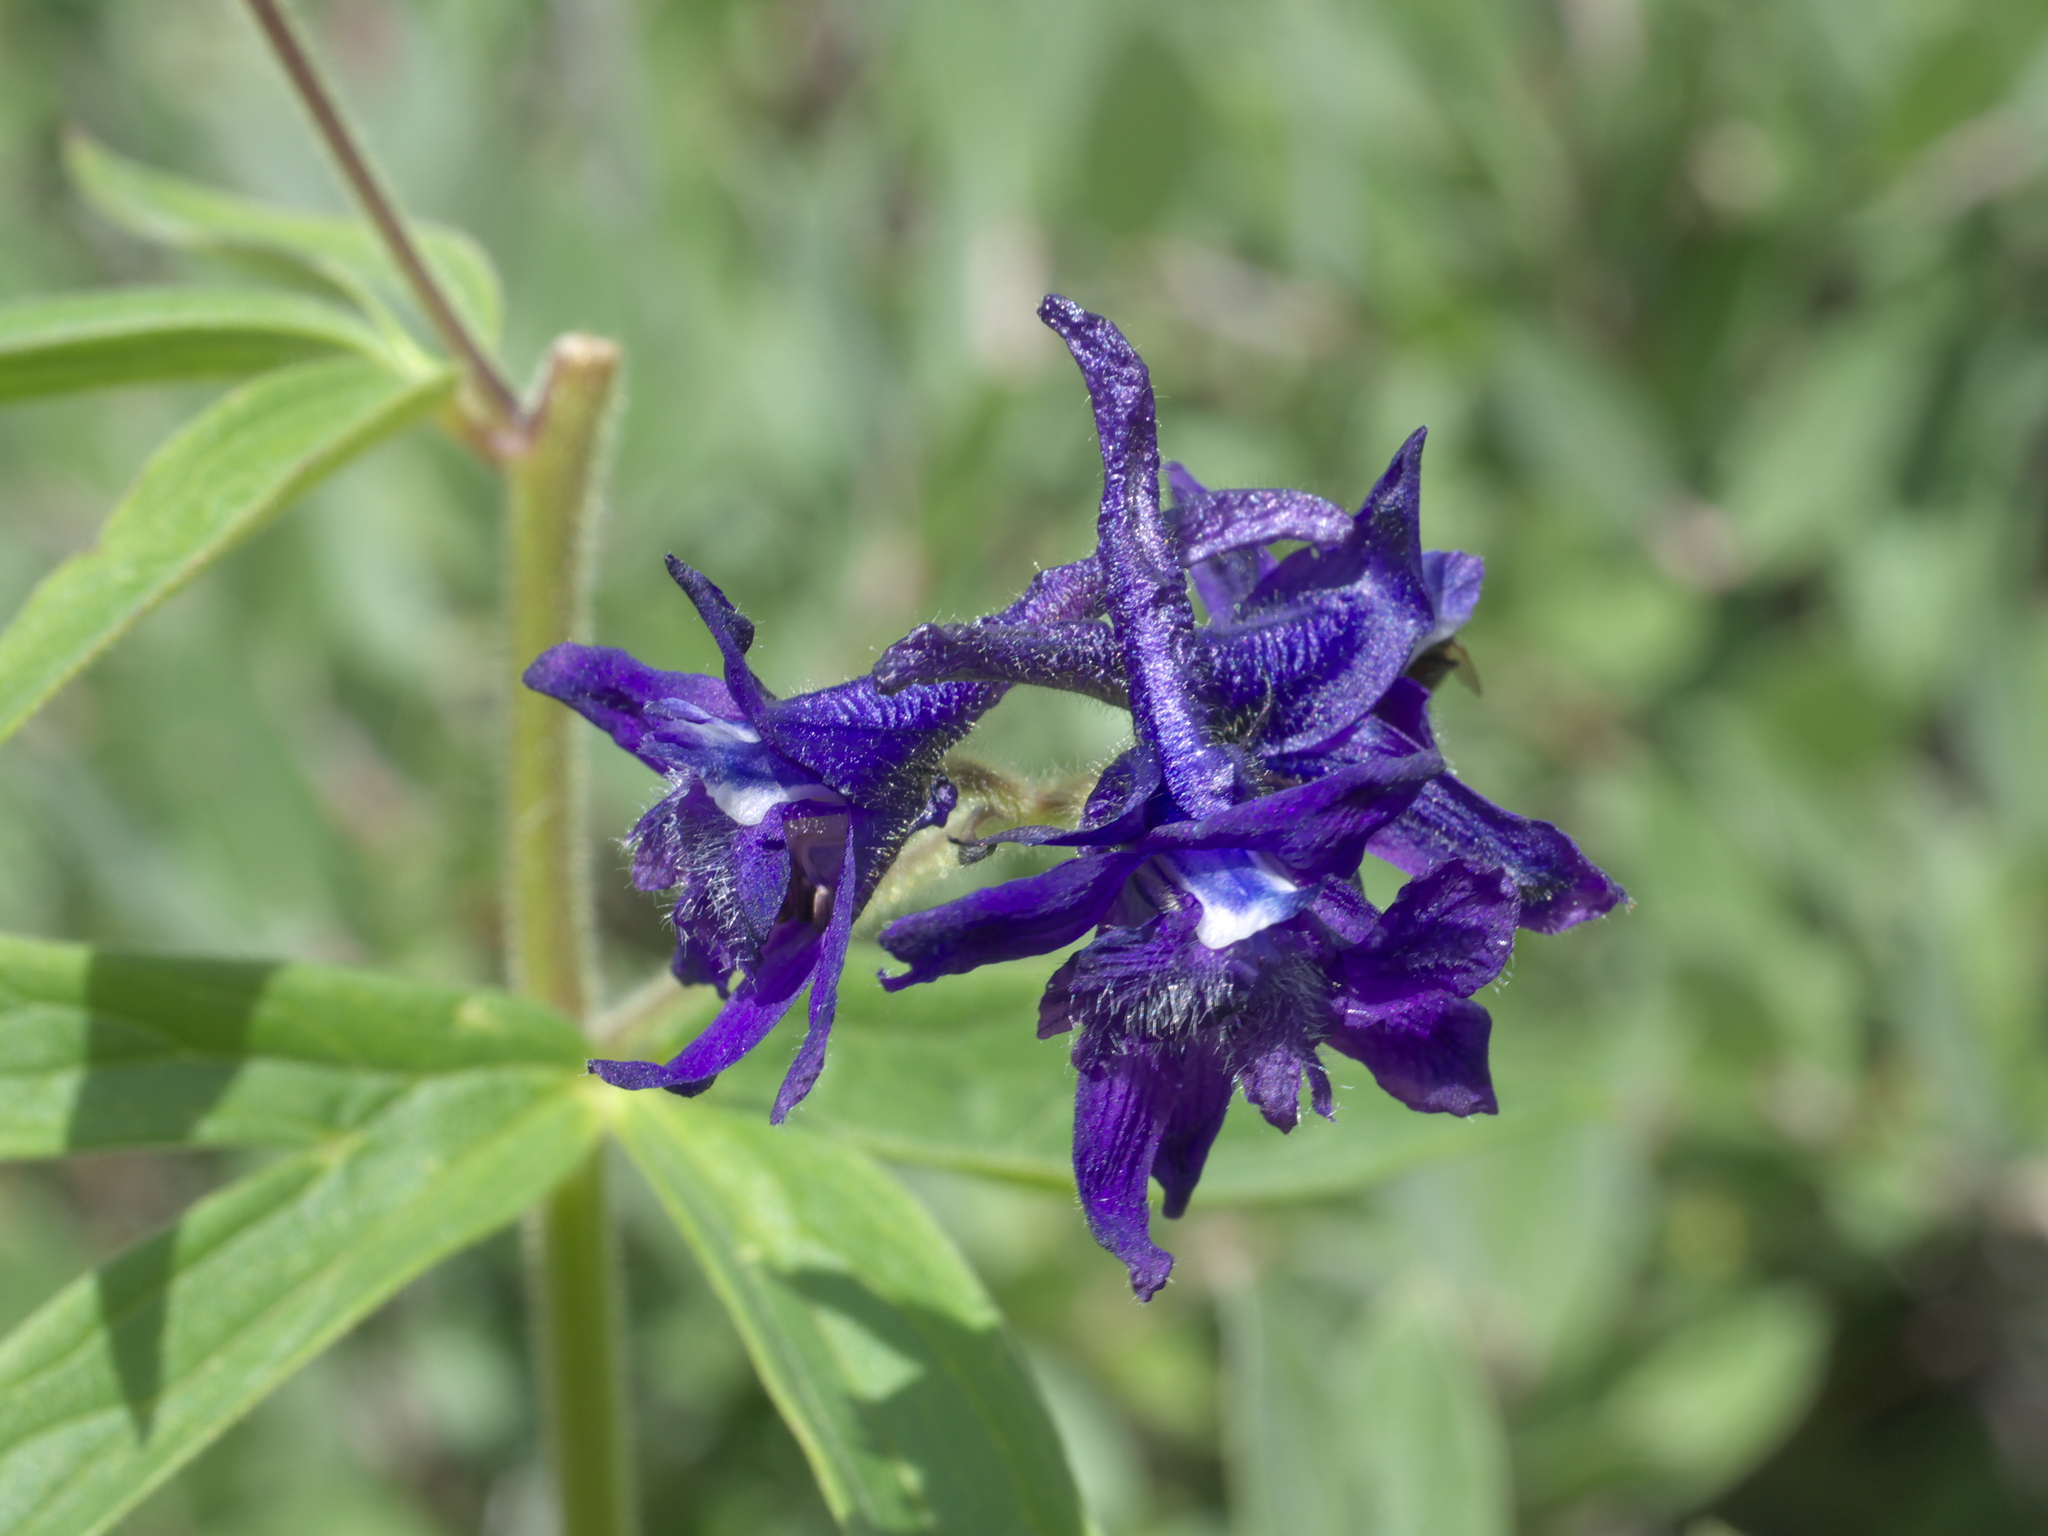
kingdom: Plantae
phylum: Tracheophyta
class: Magnoliopsida
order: Ranunculales
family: Ranunculaceae
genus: Delphinium
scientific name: Delphinium barbeyi
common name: Subalpine larkspur
